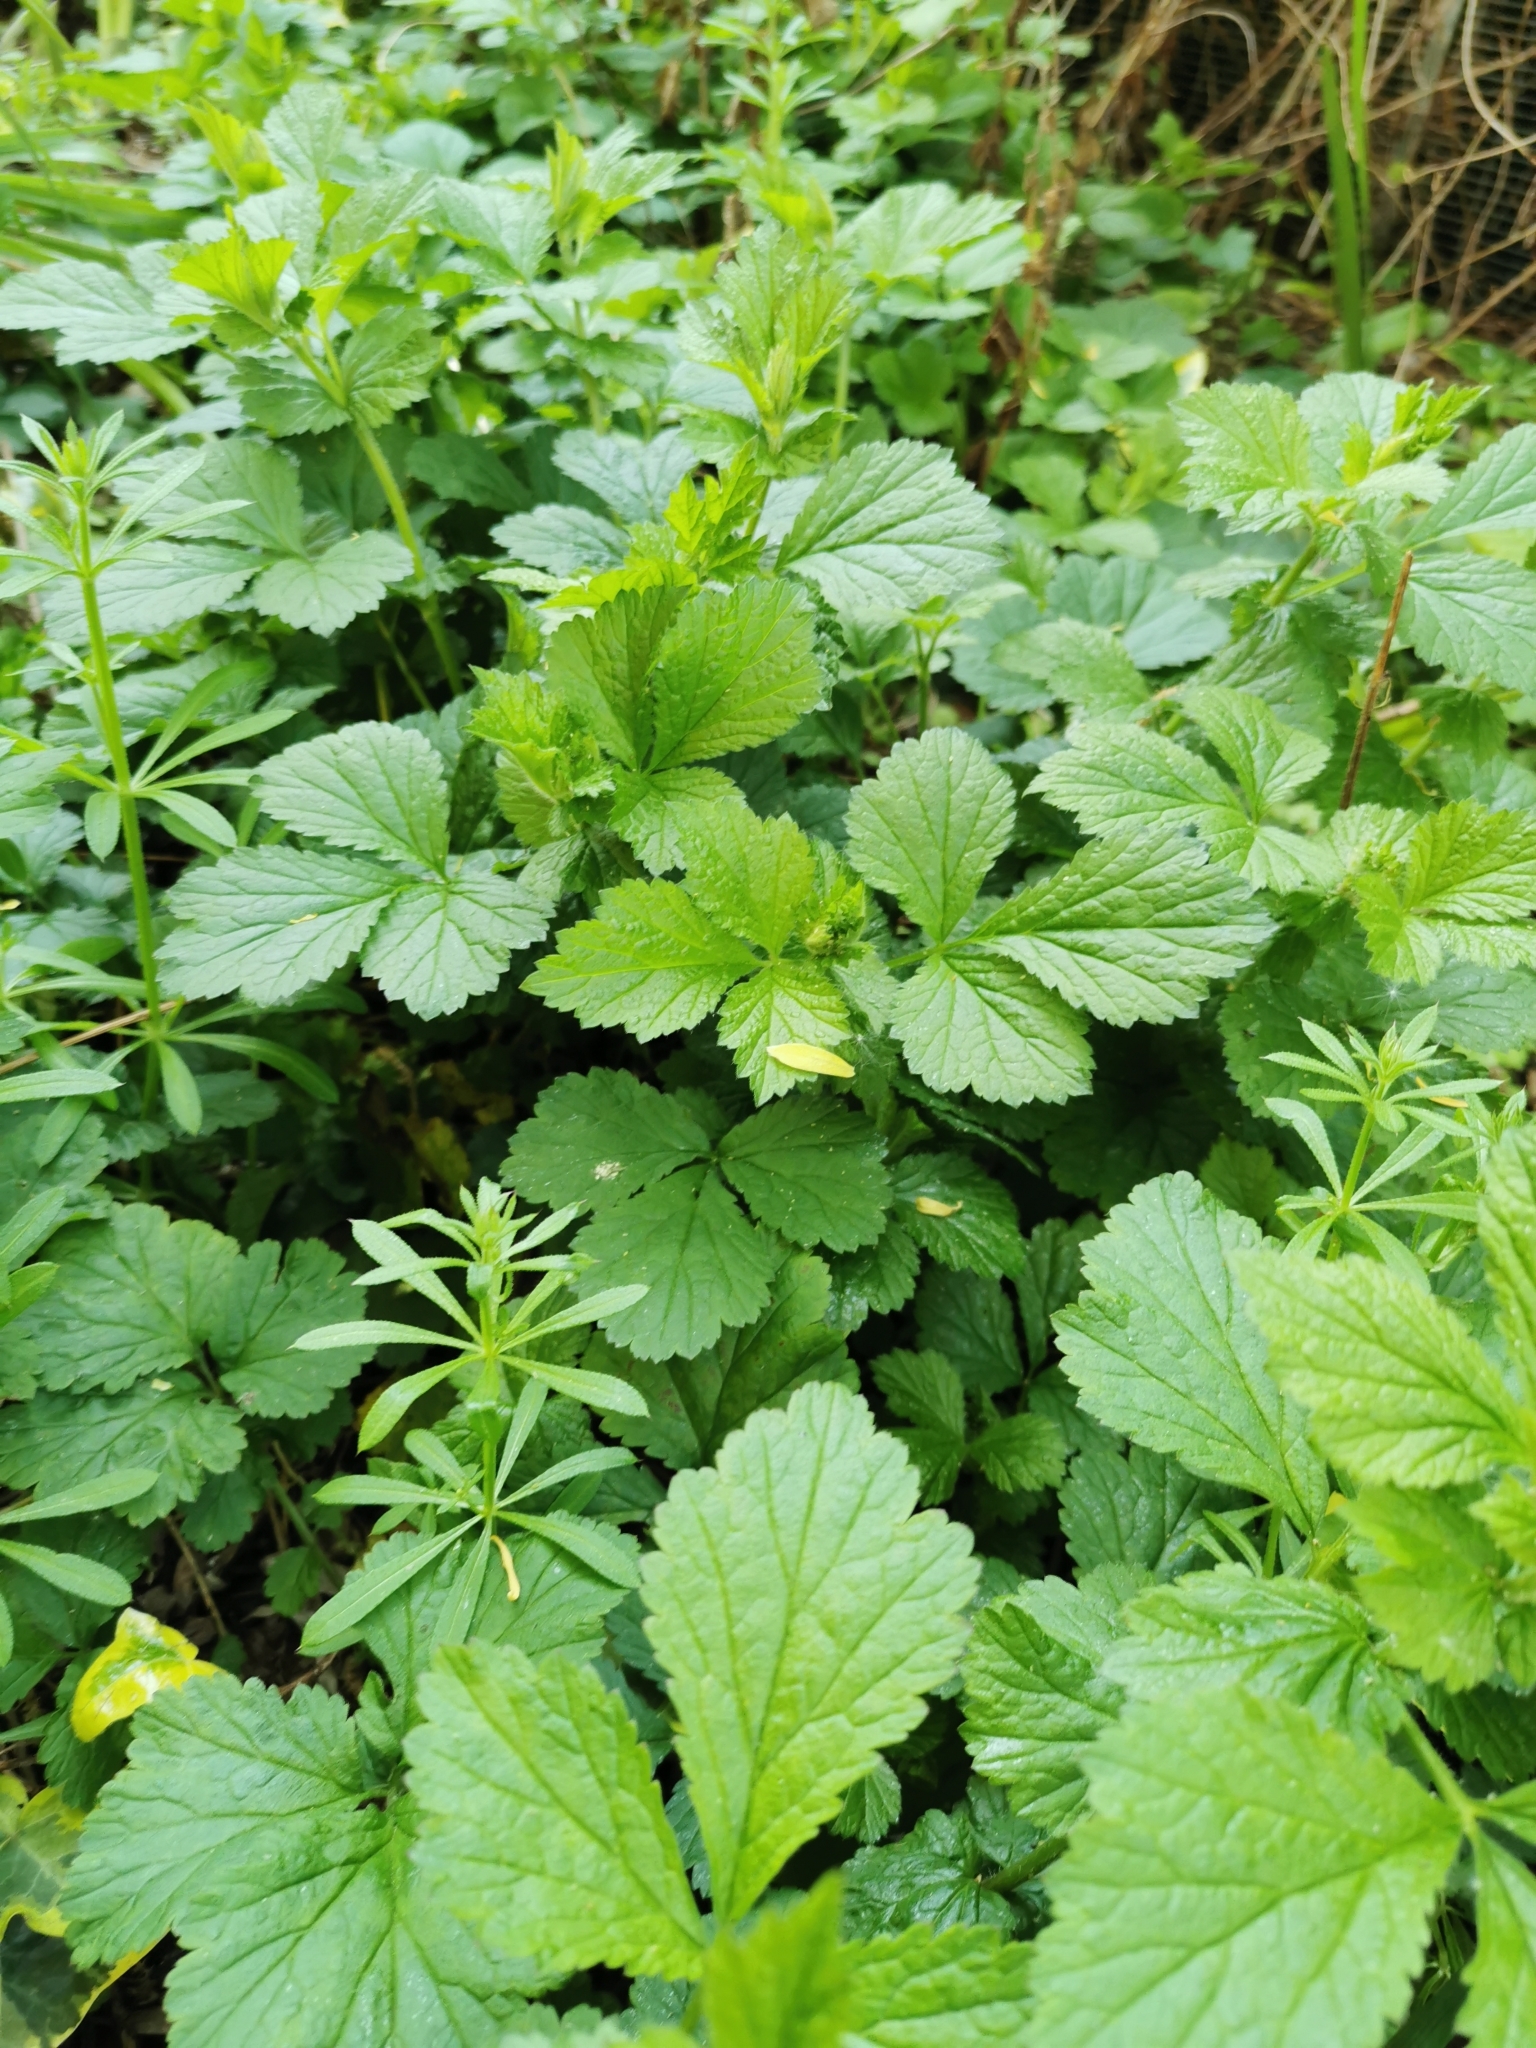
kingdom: Plantae
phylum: Tracheophyta
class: Magnoliopsida
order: Rosales
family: Rosaceae
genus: Geum
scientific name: Geum urbanum
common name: Wood avens
